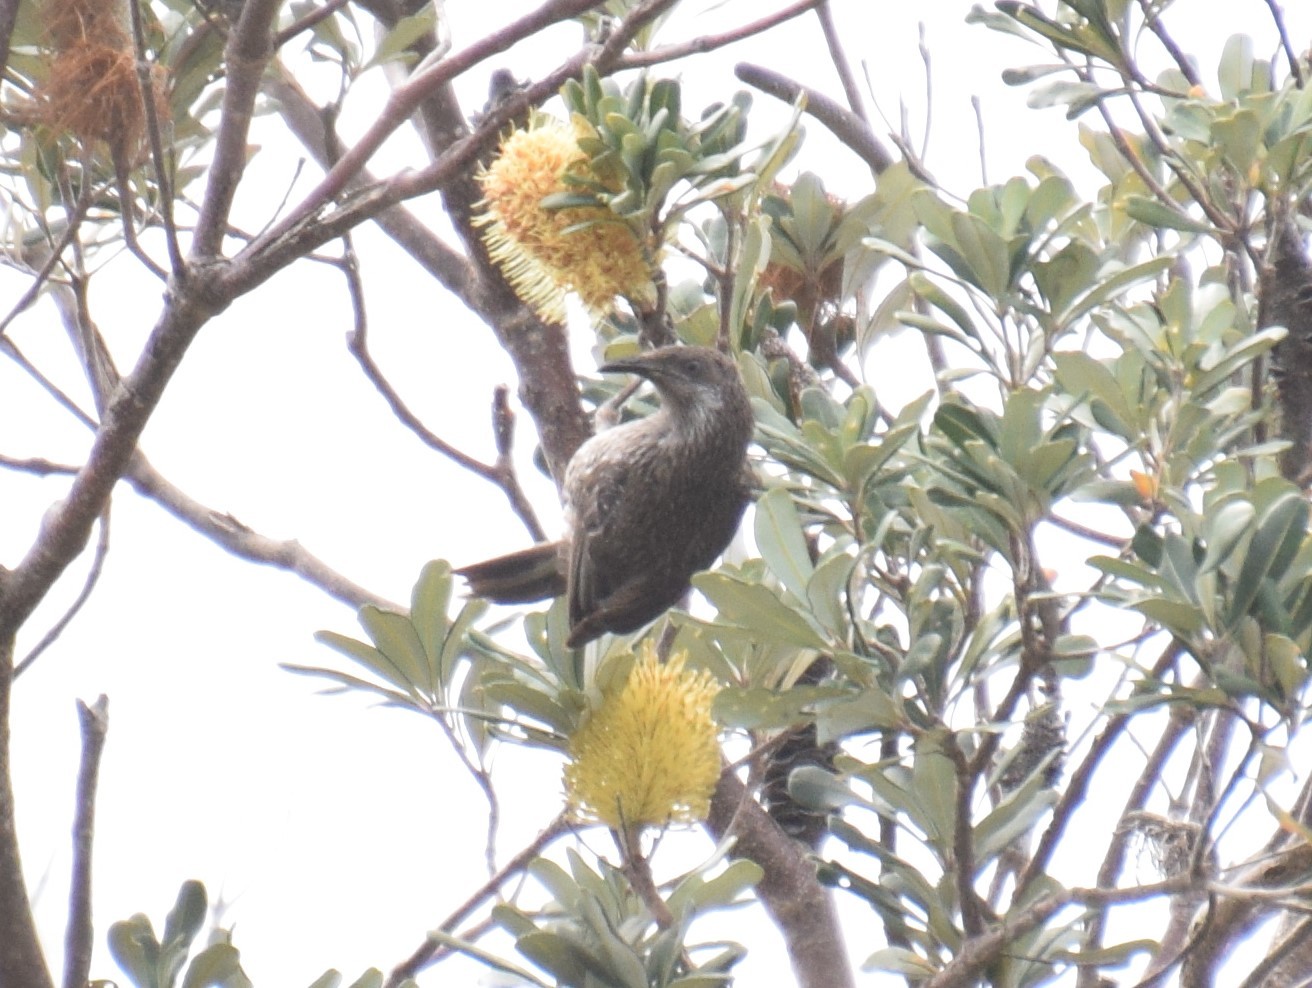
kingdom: Animalia
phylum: Chordata
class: Aves
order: Passeriformes
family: Meliphagidae
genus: Anthochaera
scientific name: Anthochaera chrysoptera
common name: Little wattlebird
